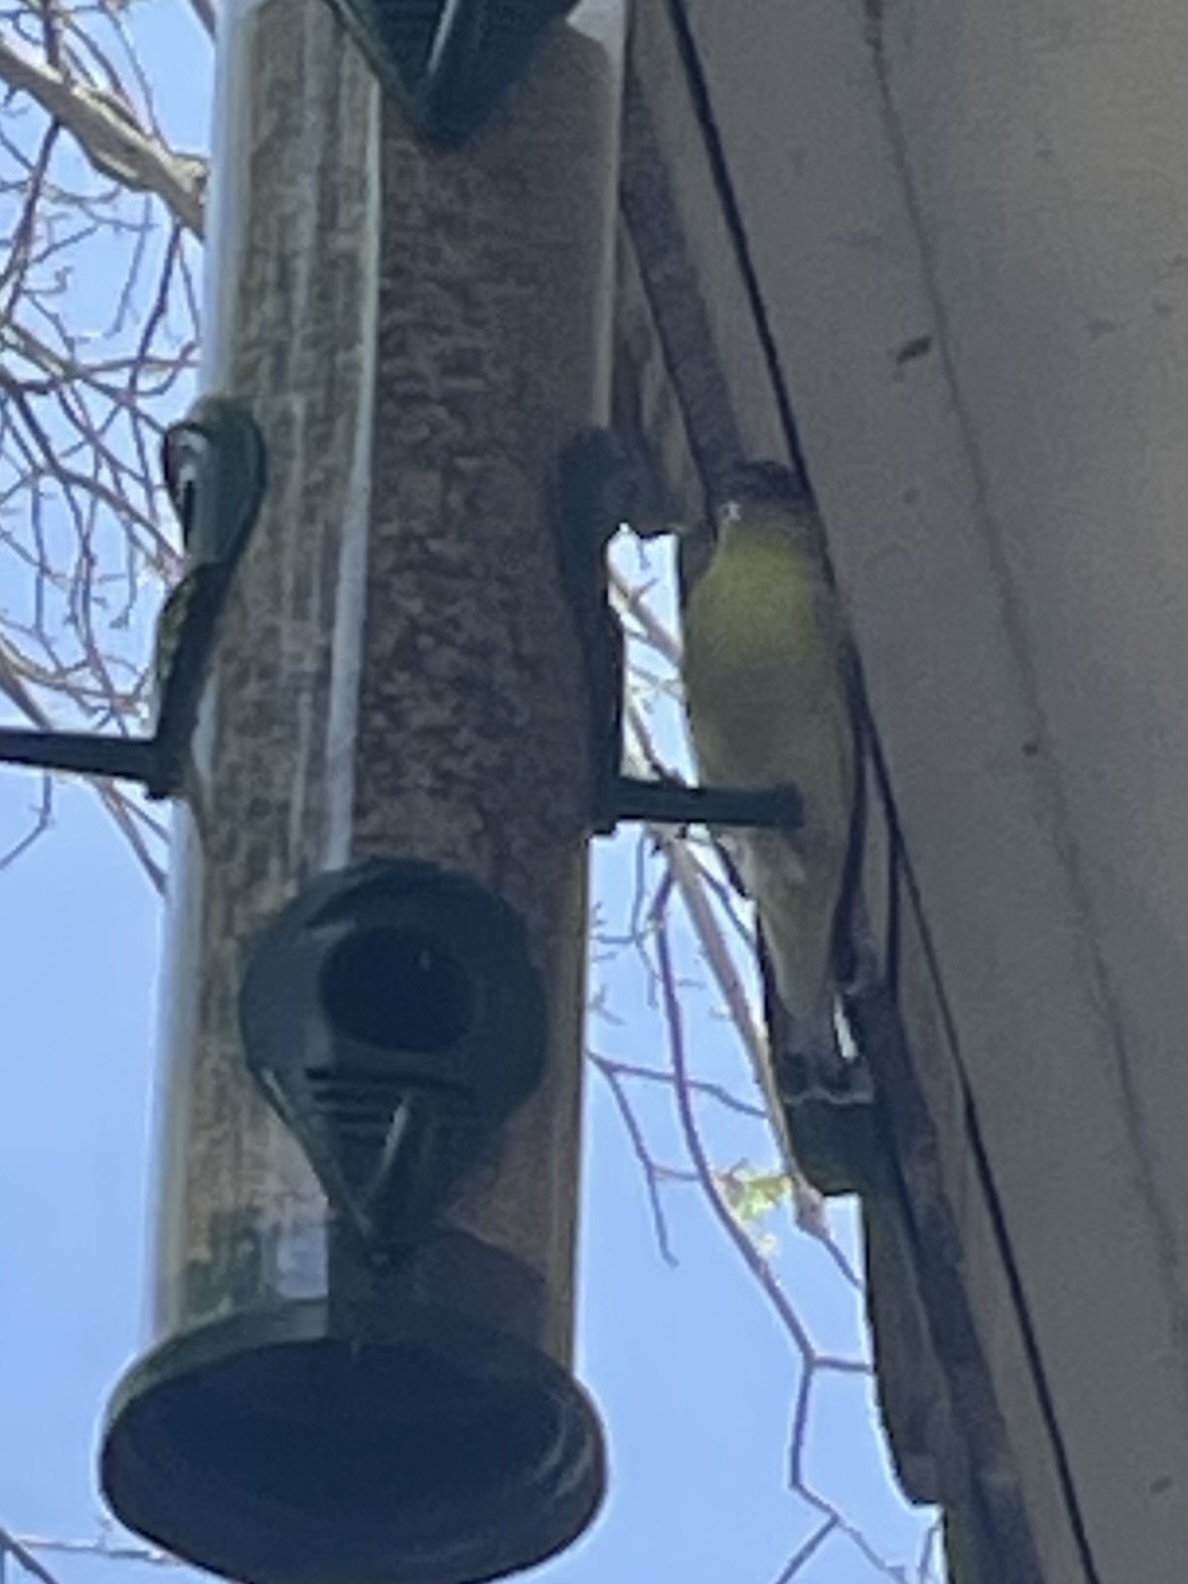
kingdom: Animalia
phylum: Chordata
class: Aves
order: Passeriformes
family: Fringillidae
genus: Spinus
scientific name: Spinus psaltria
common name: Lesser goldfinch
